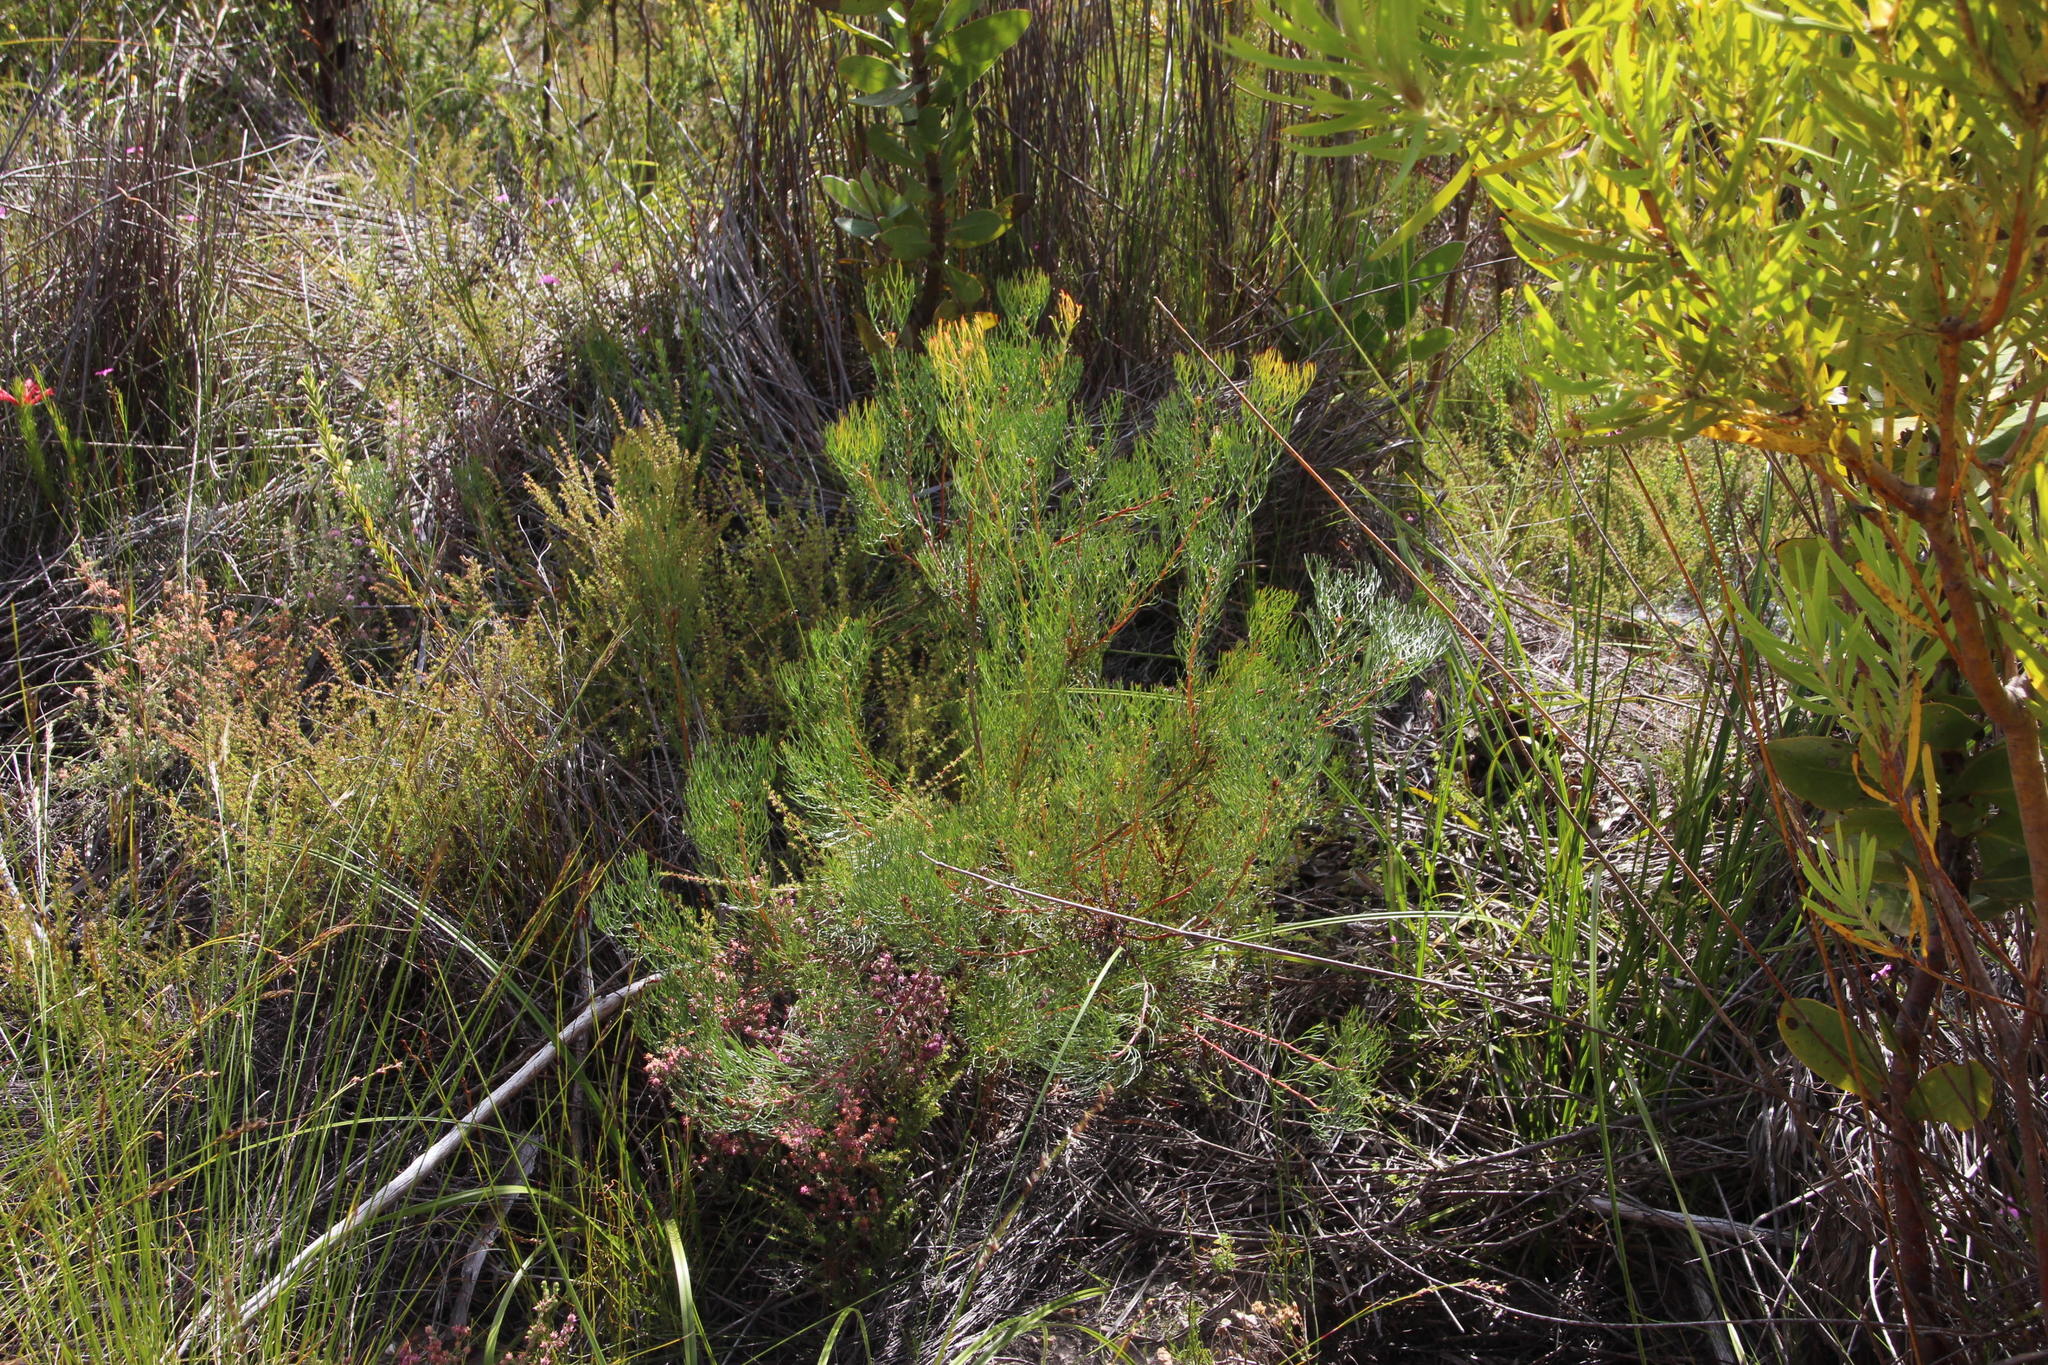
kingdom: Plantae
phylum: Tracheophyta
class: Magnoliopsida
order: Proteales
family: Proteaceae
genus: Serruria
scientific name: Serruria fasciflora
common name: Common pin spiderhead
